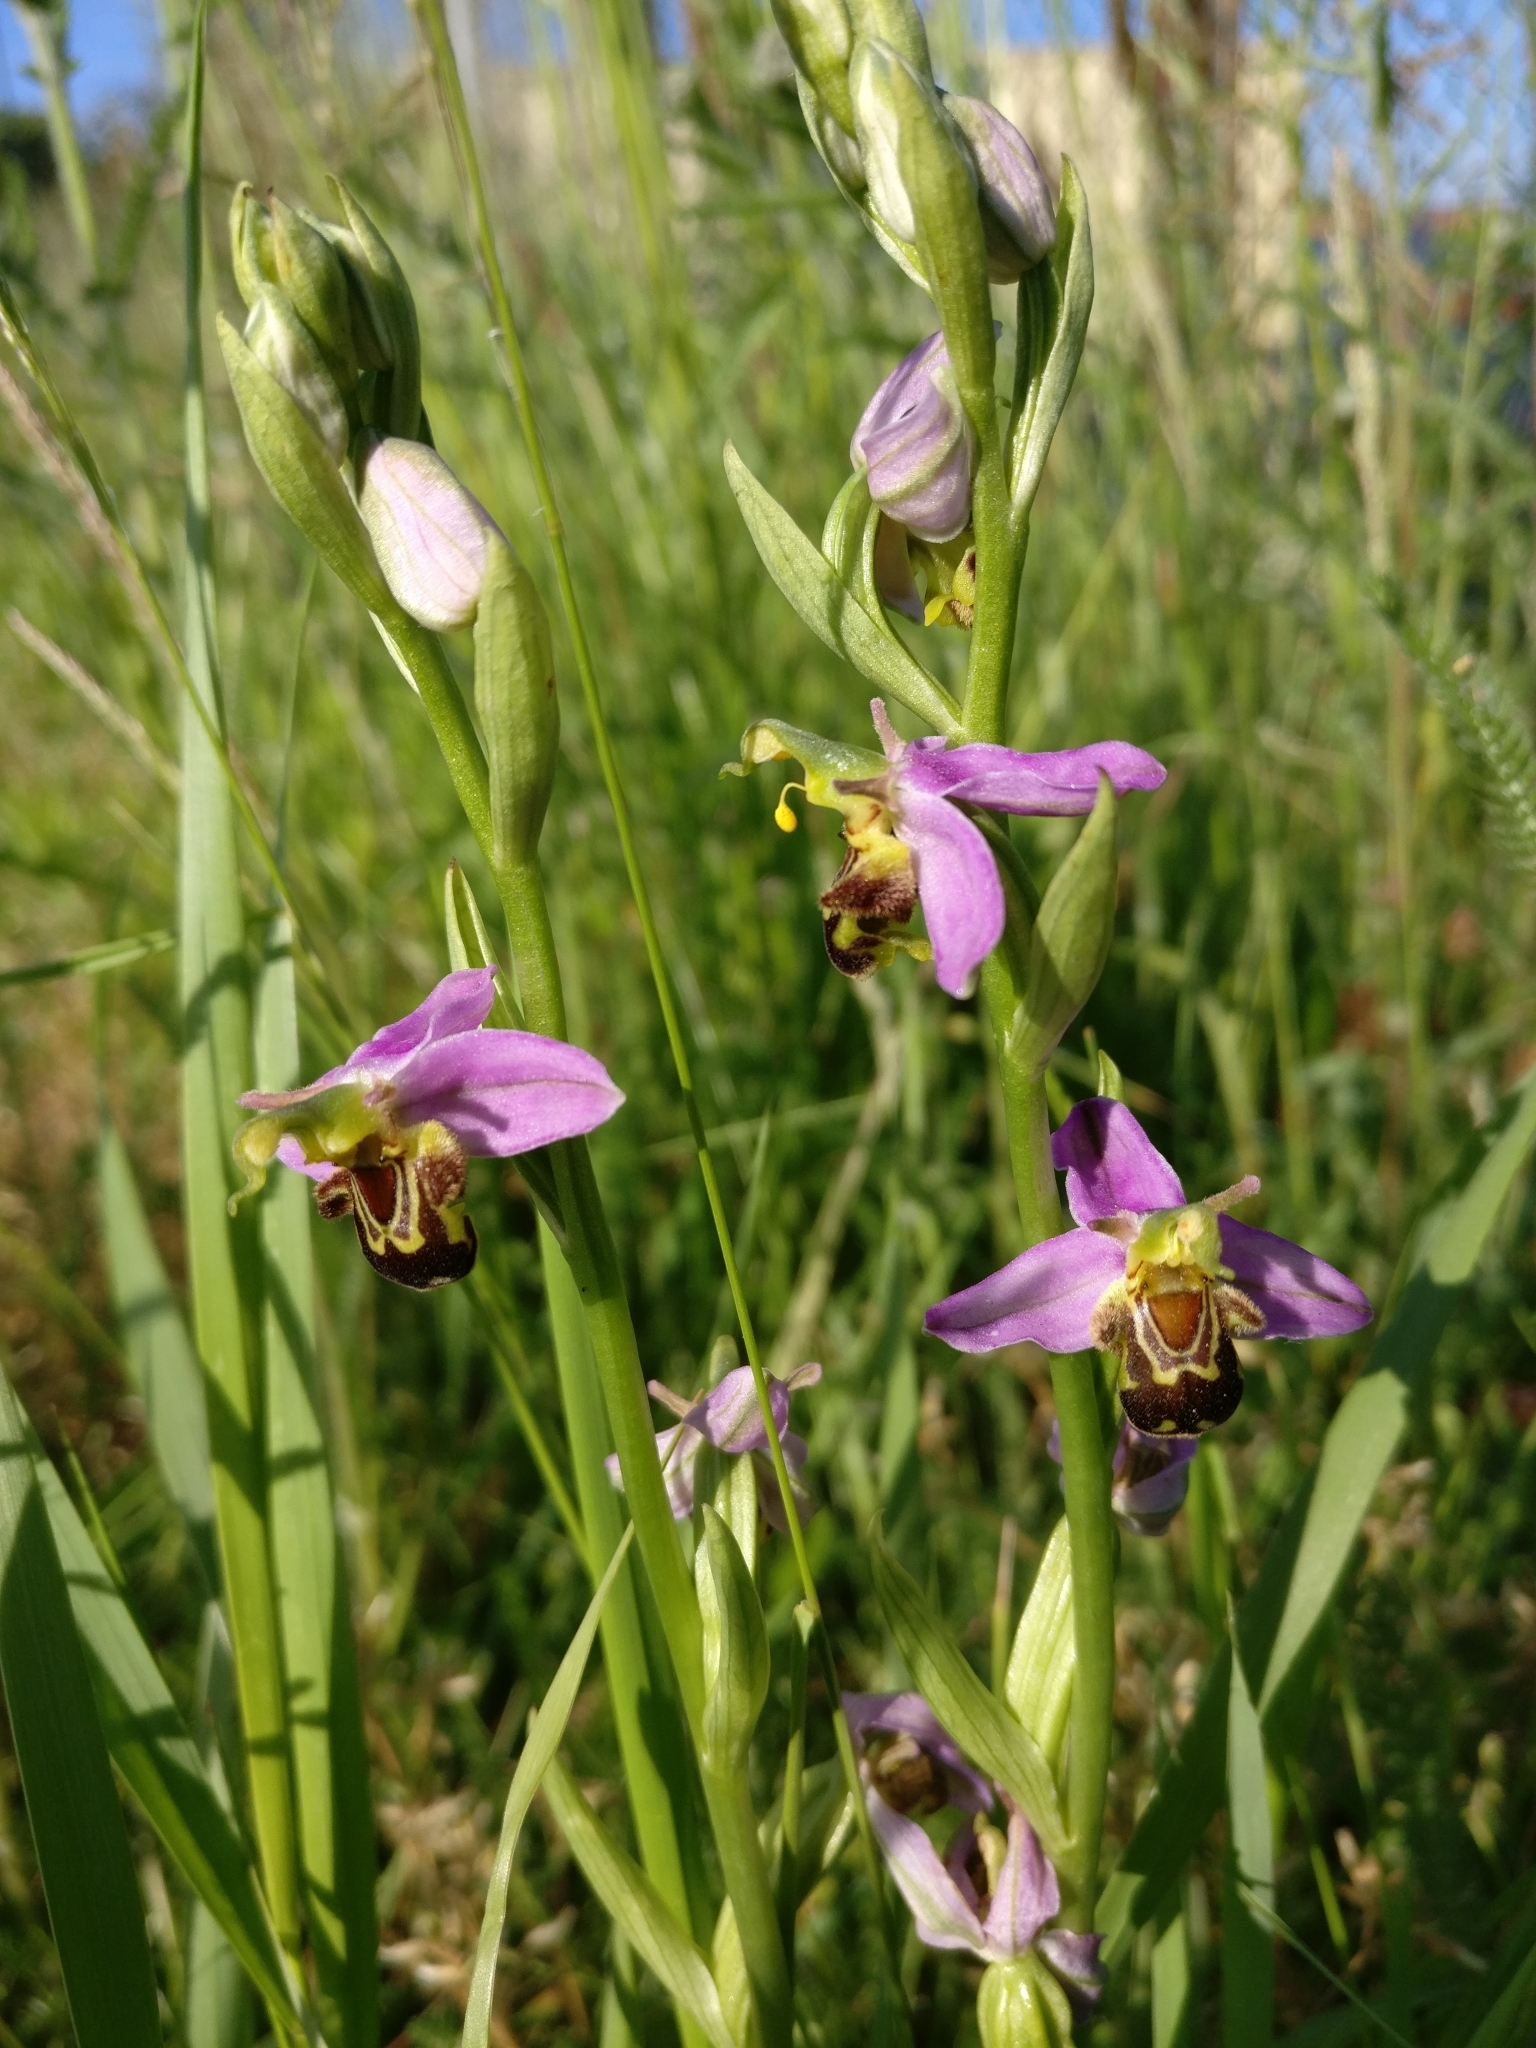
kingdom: Plantae
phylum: Tracheophyta
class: Liliopsida
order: Asparagales
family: Orchidaceae
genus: Ophrys
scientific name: Ophrys apifera
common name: Bee orchid
